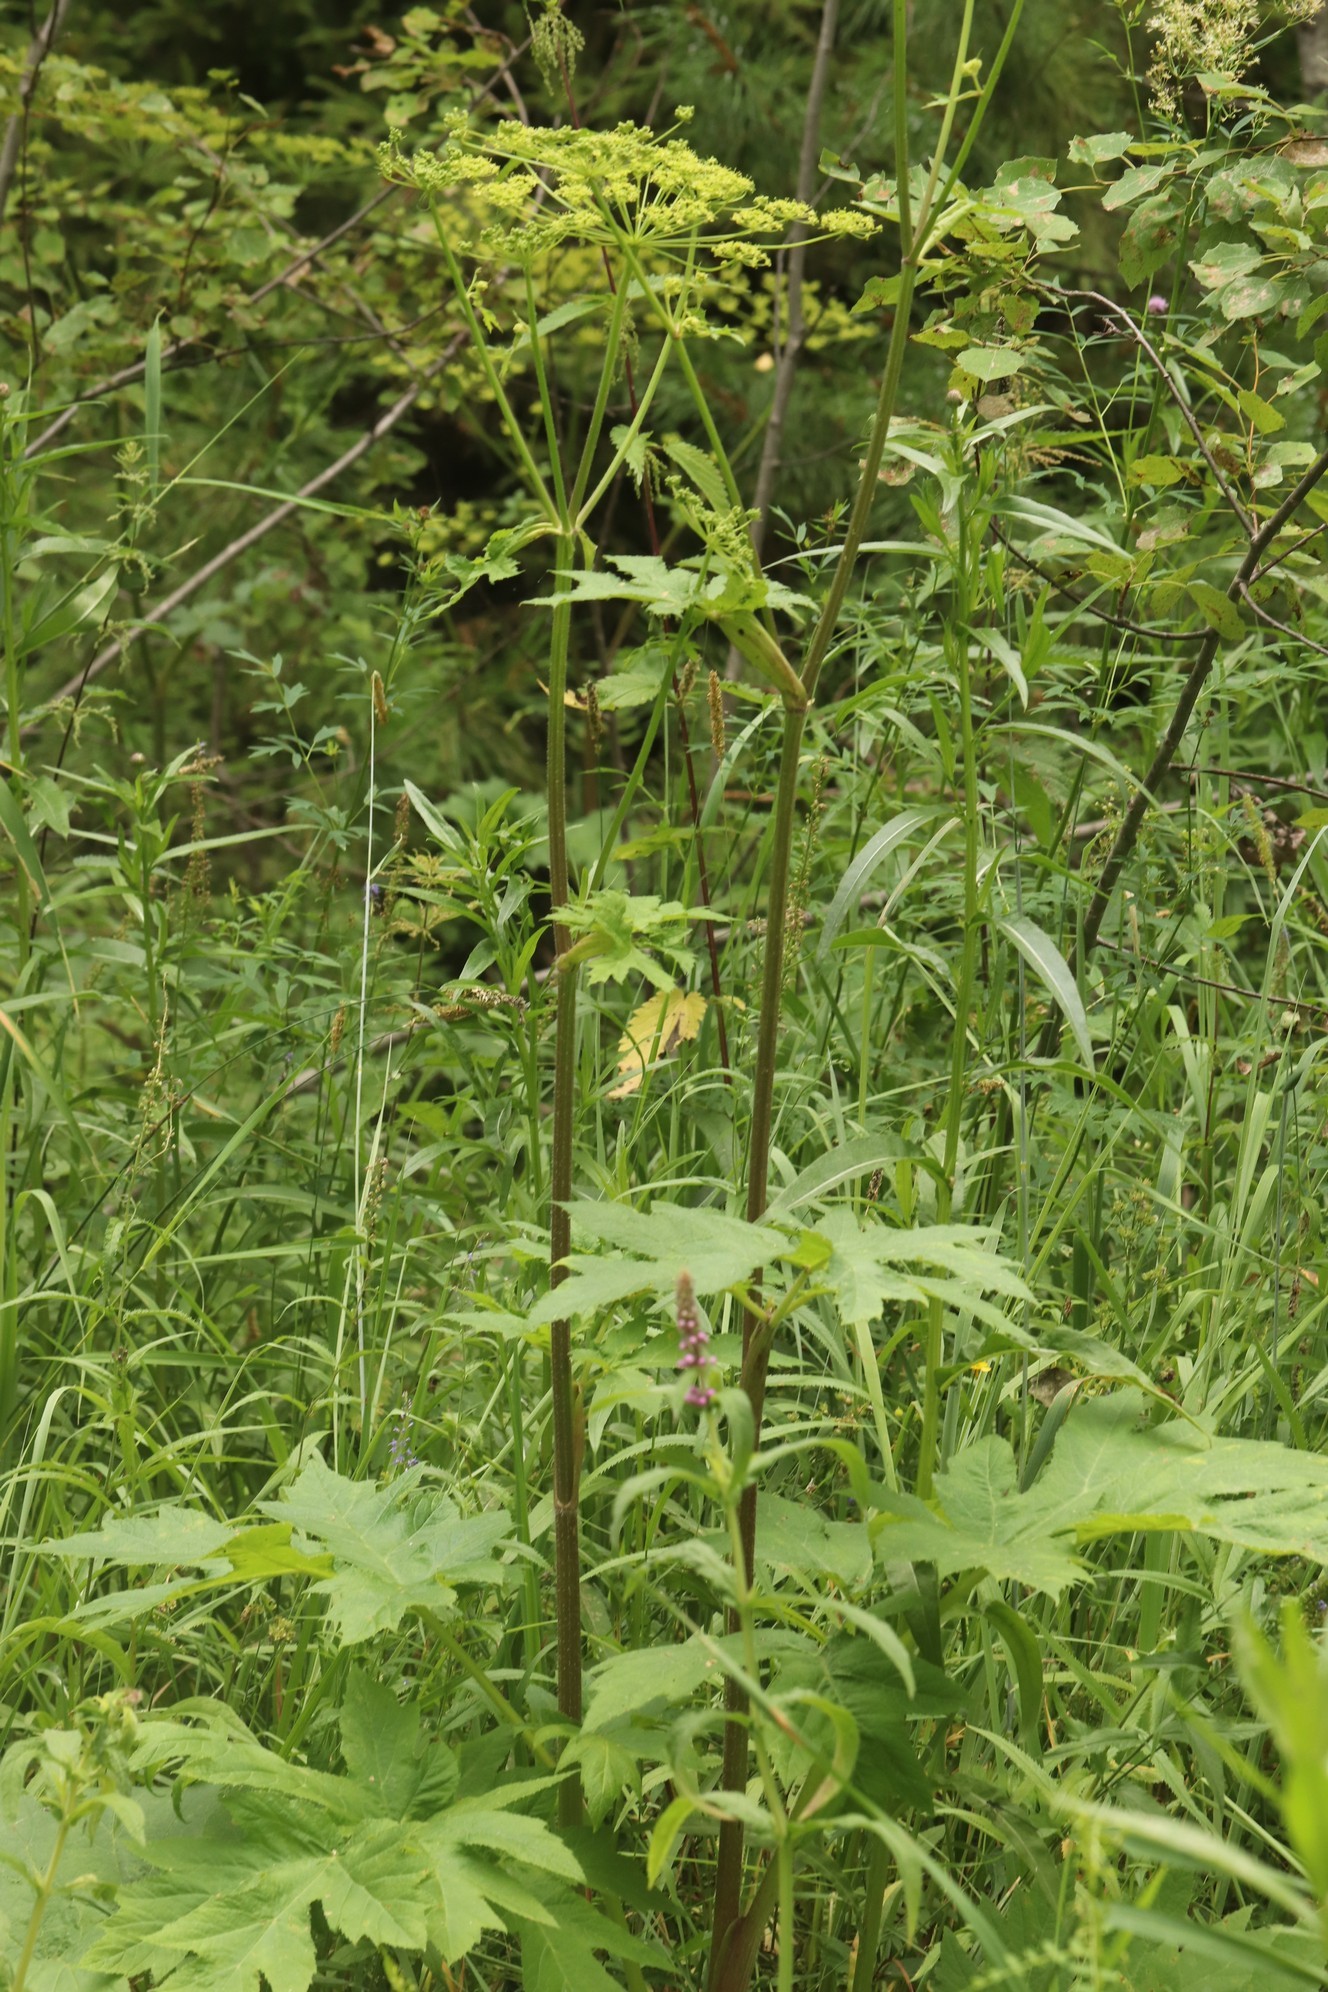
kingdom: Plantae
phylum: Tracheophyta
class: Magnoliopsida
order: Apiales
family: Apiaceae
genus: Heracleum
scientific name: Heracleum sphondylium
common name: Hogweed
